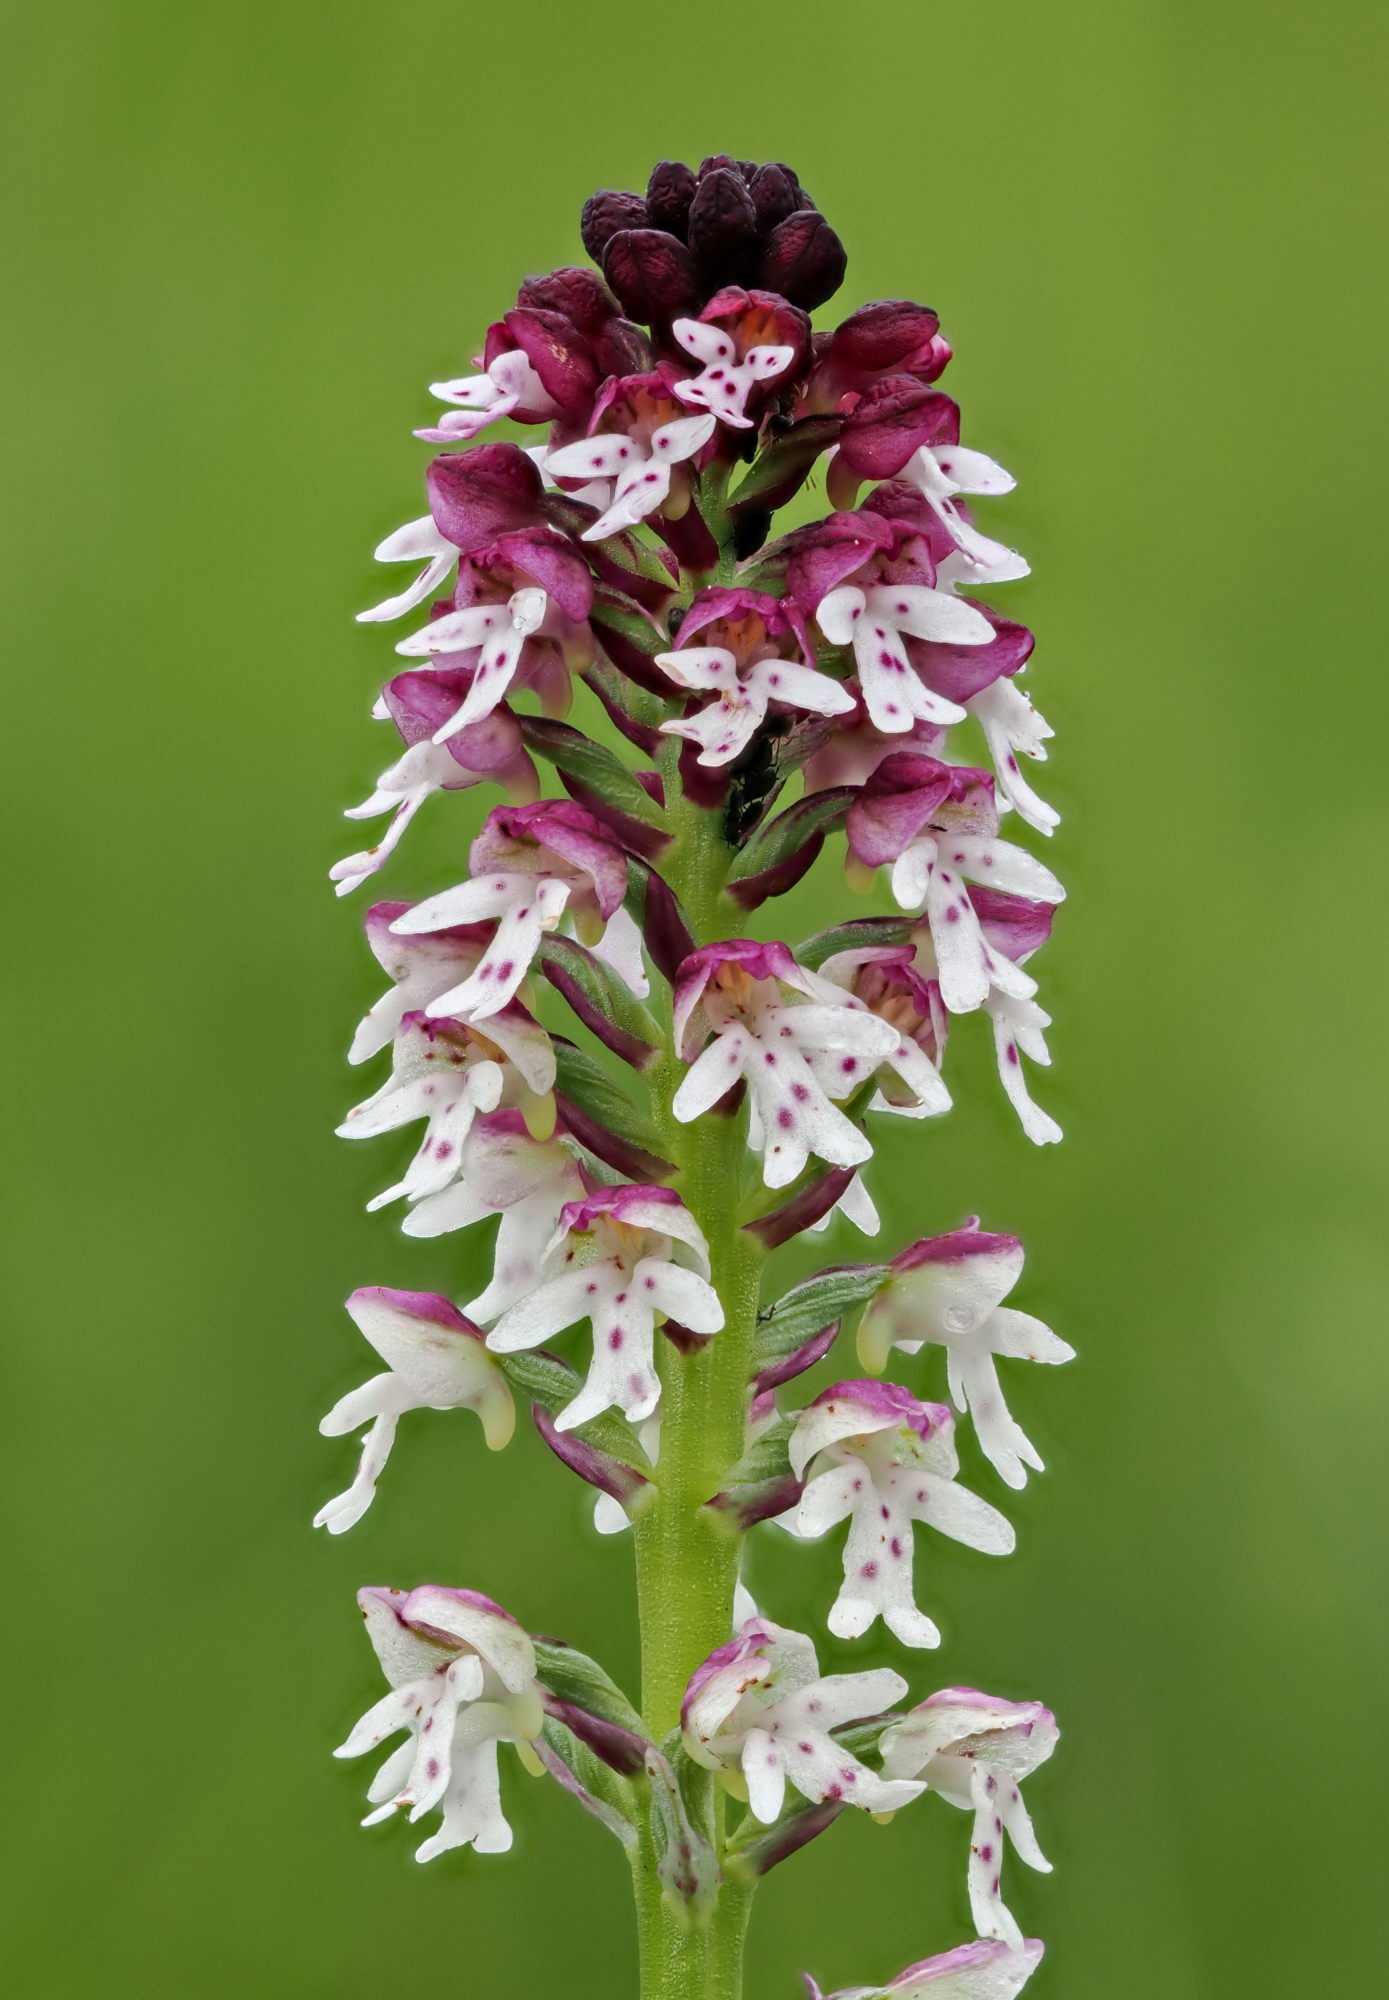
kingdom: Plantae
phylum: Tracheophyta
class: Liliopsida
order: Asparagales
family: Orchidaceae
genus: Neotinea
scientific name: Neotinea ustulata
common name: Burnt orchid
